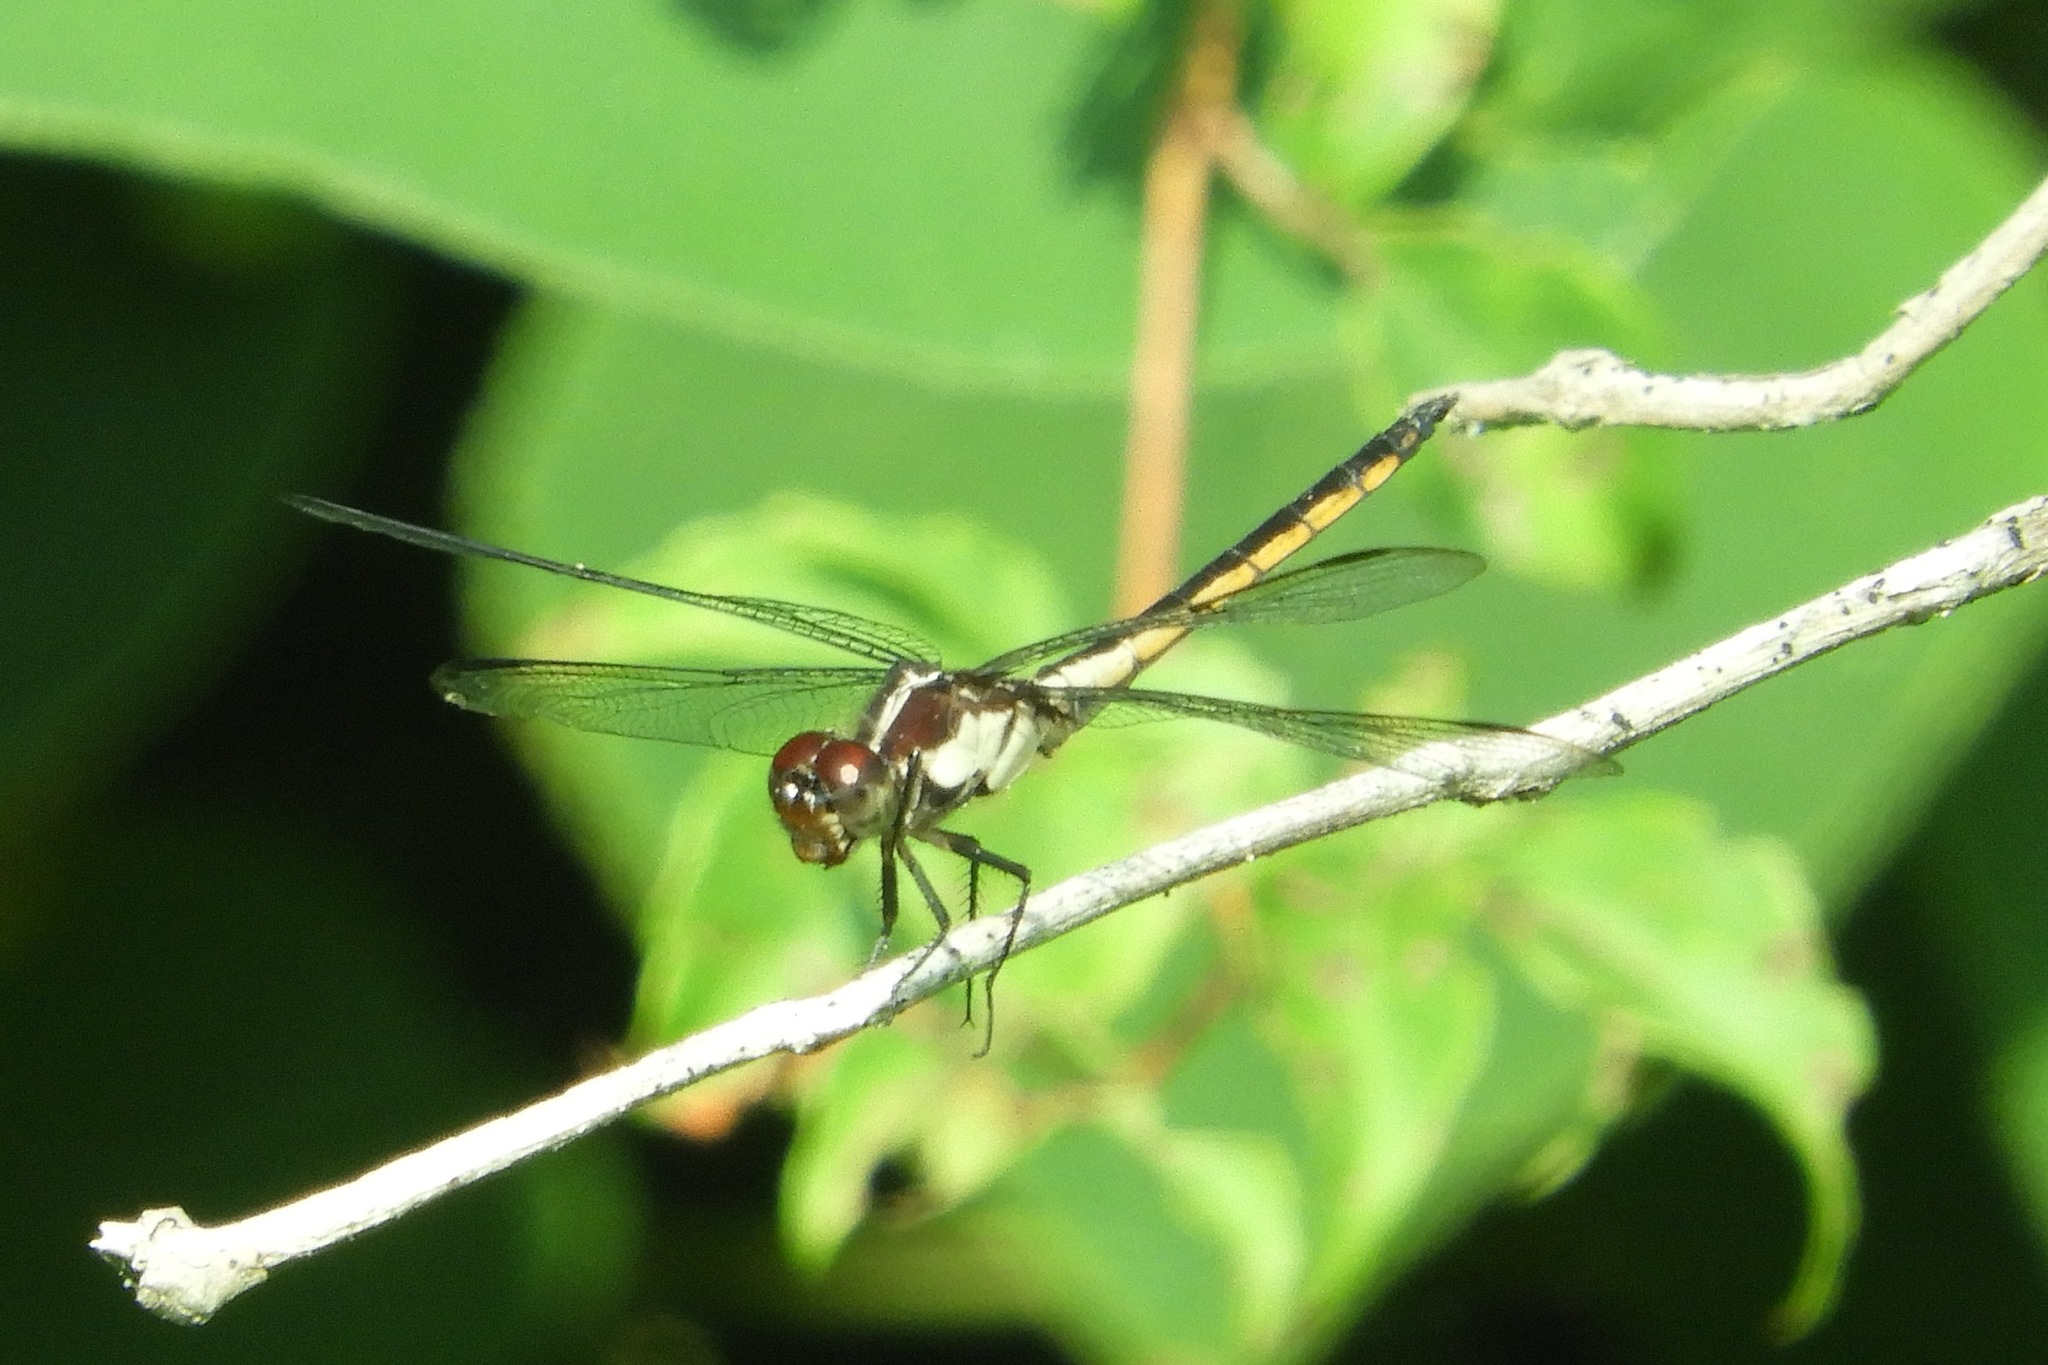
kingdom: Animalia
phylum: Arthropoda
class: Insecta
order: Odonata
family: Libellulidae
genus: Libellula
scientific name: Libellula incesta
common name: Slaty skimmer
